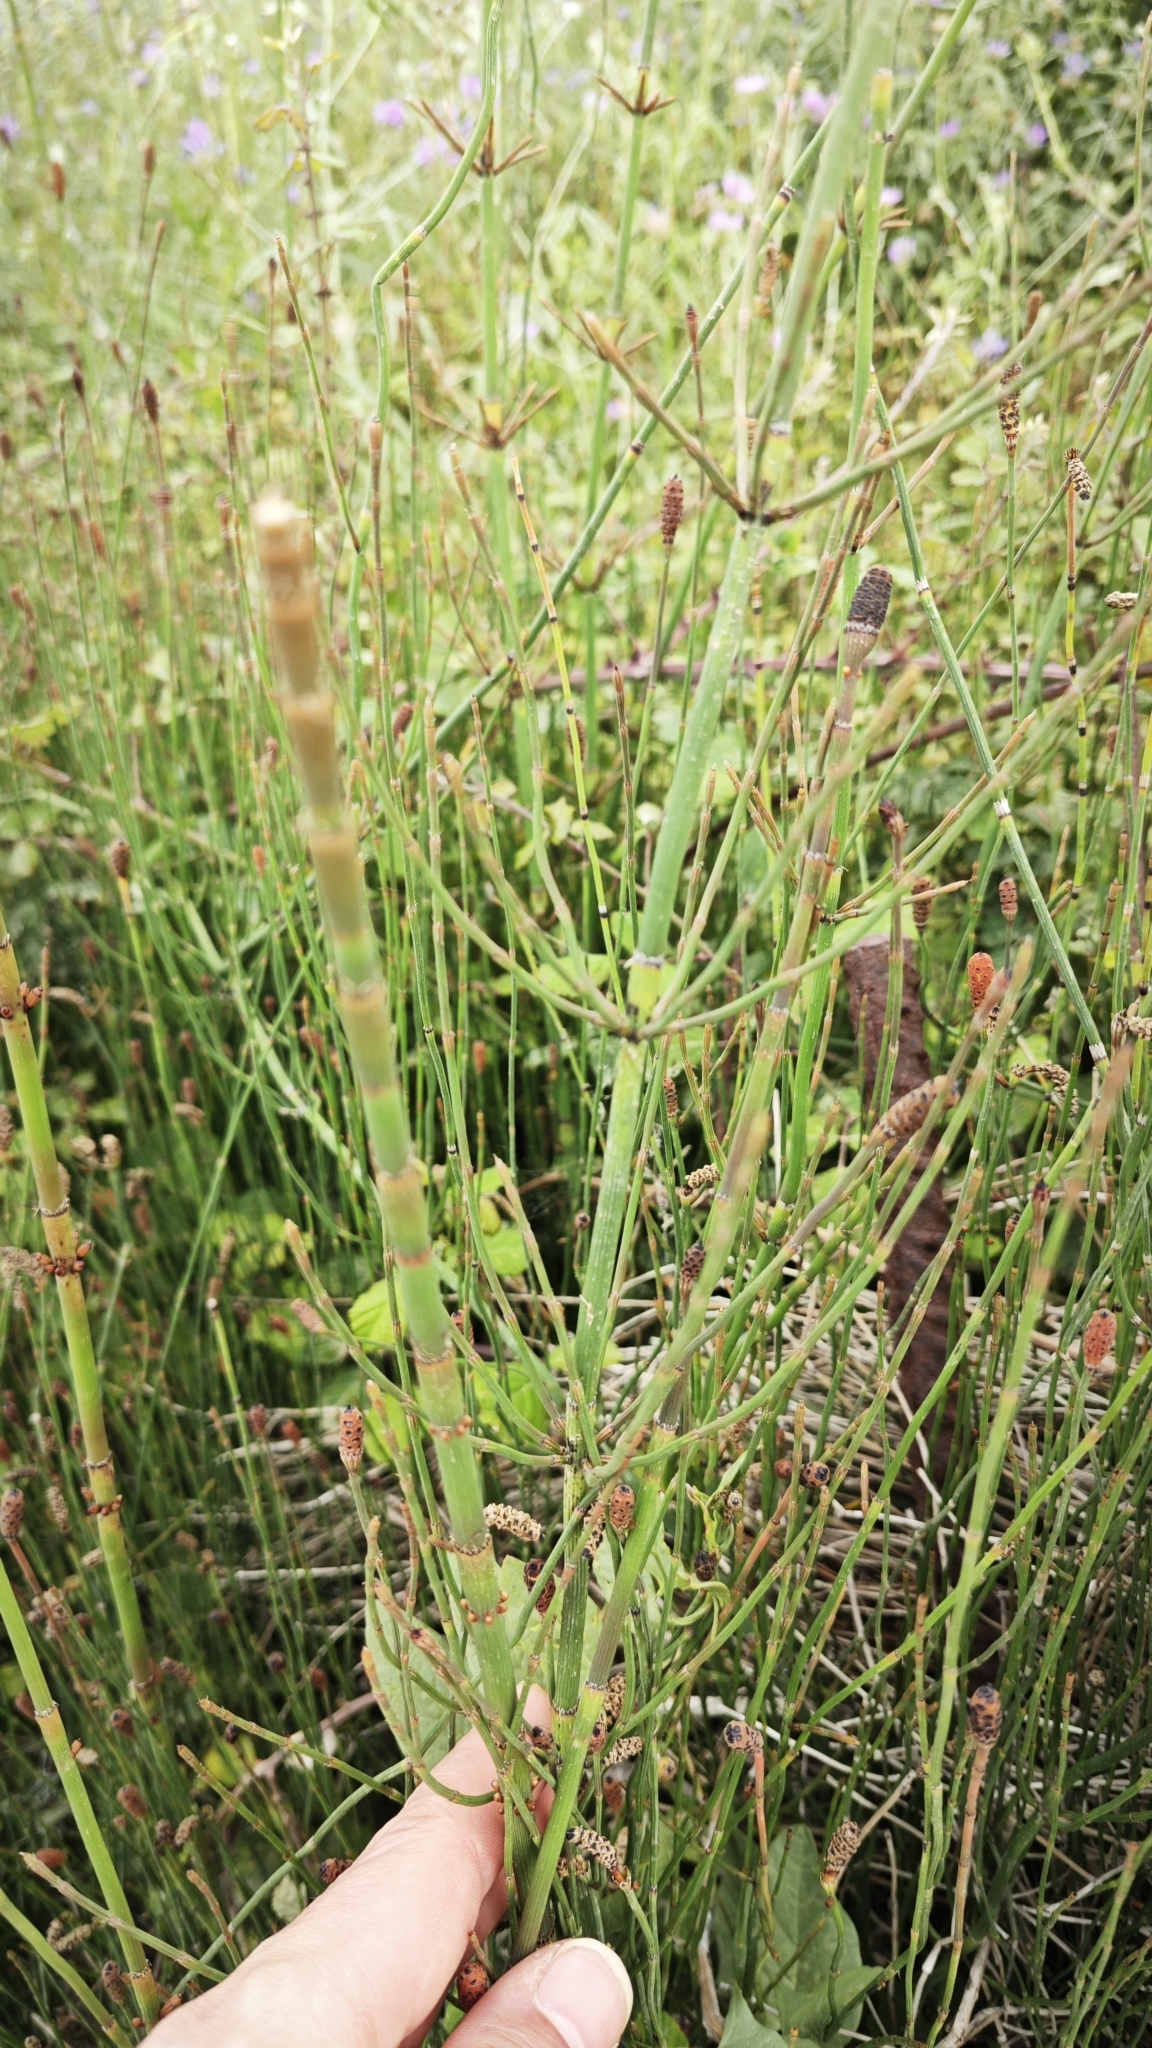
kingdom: Plantae
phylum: Tracheophyta
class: Polypodiopsida
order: Equisetales
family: Equisetaceae
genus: Equisetum
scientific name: Equisetum ramosissimum
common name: Branched horsetail
